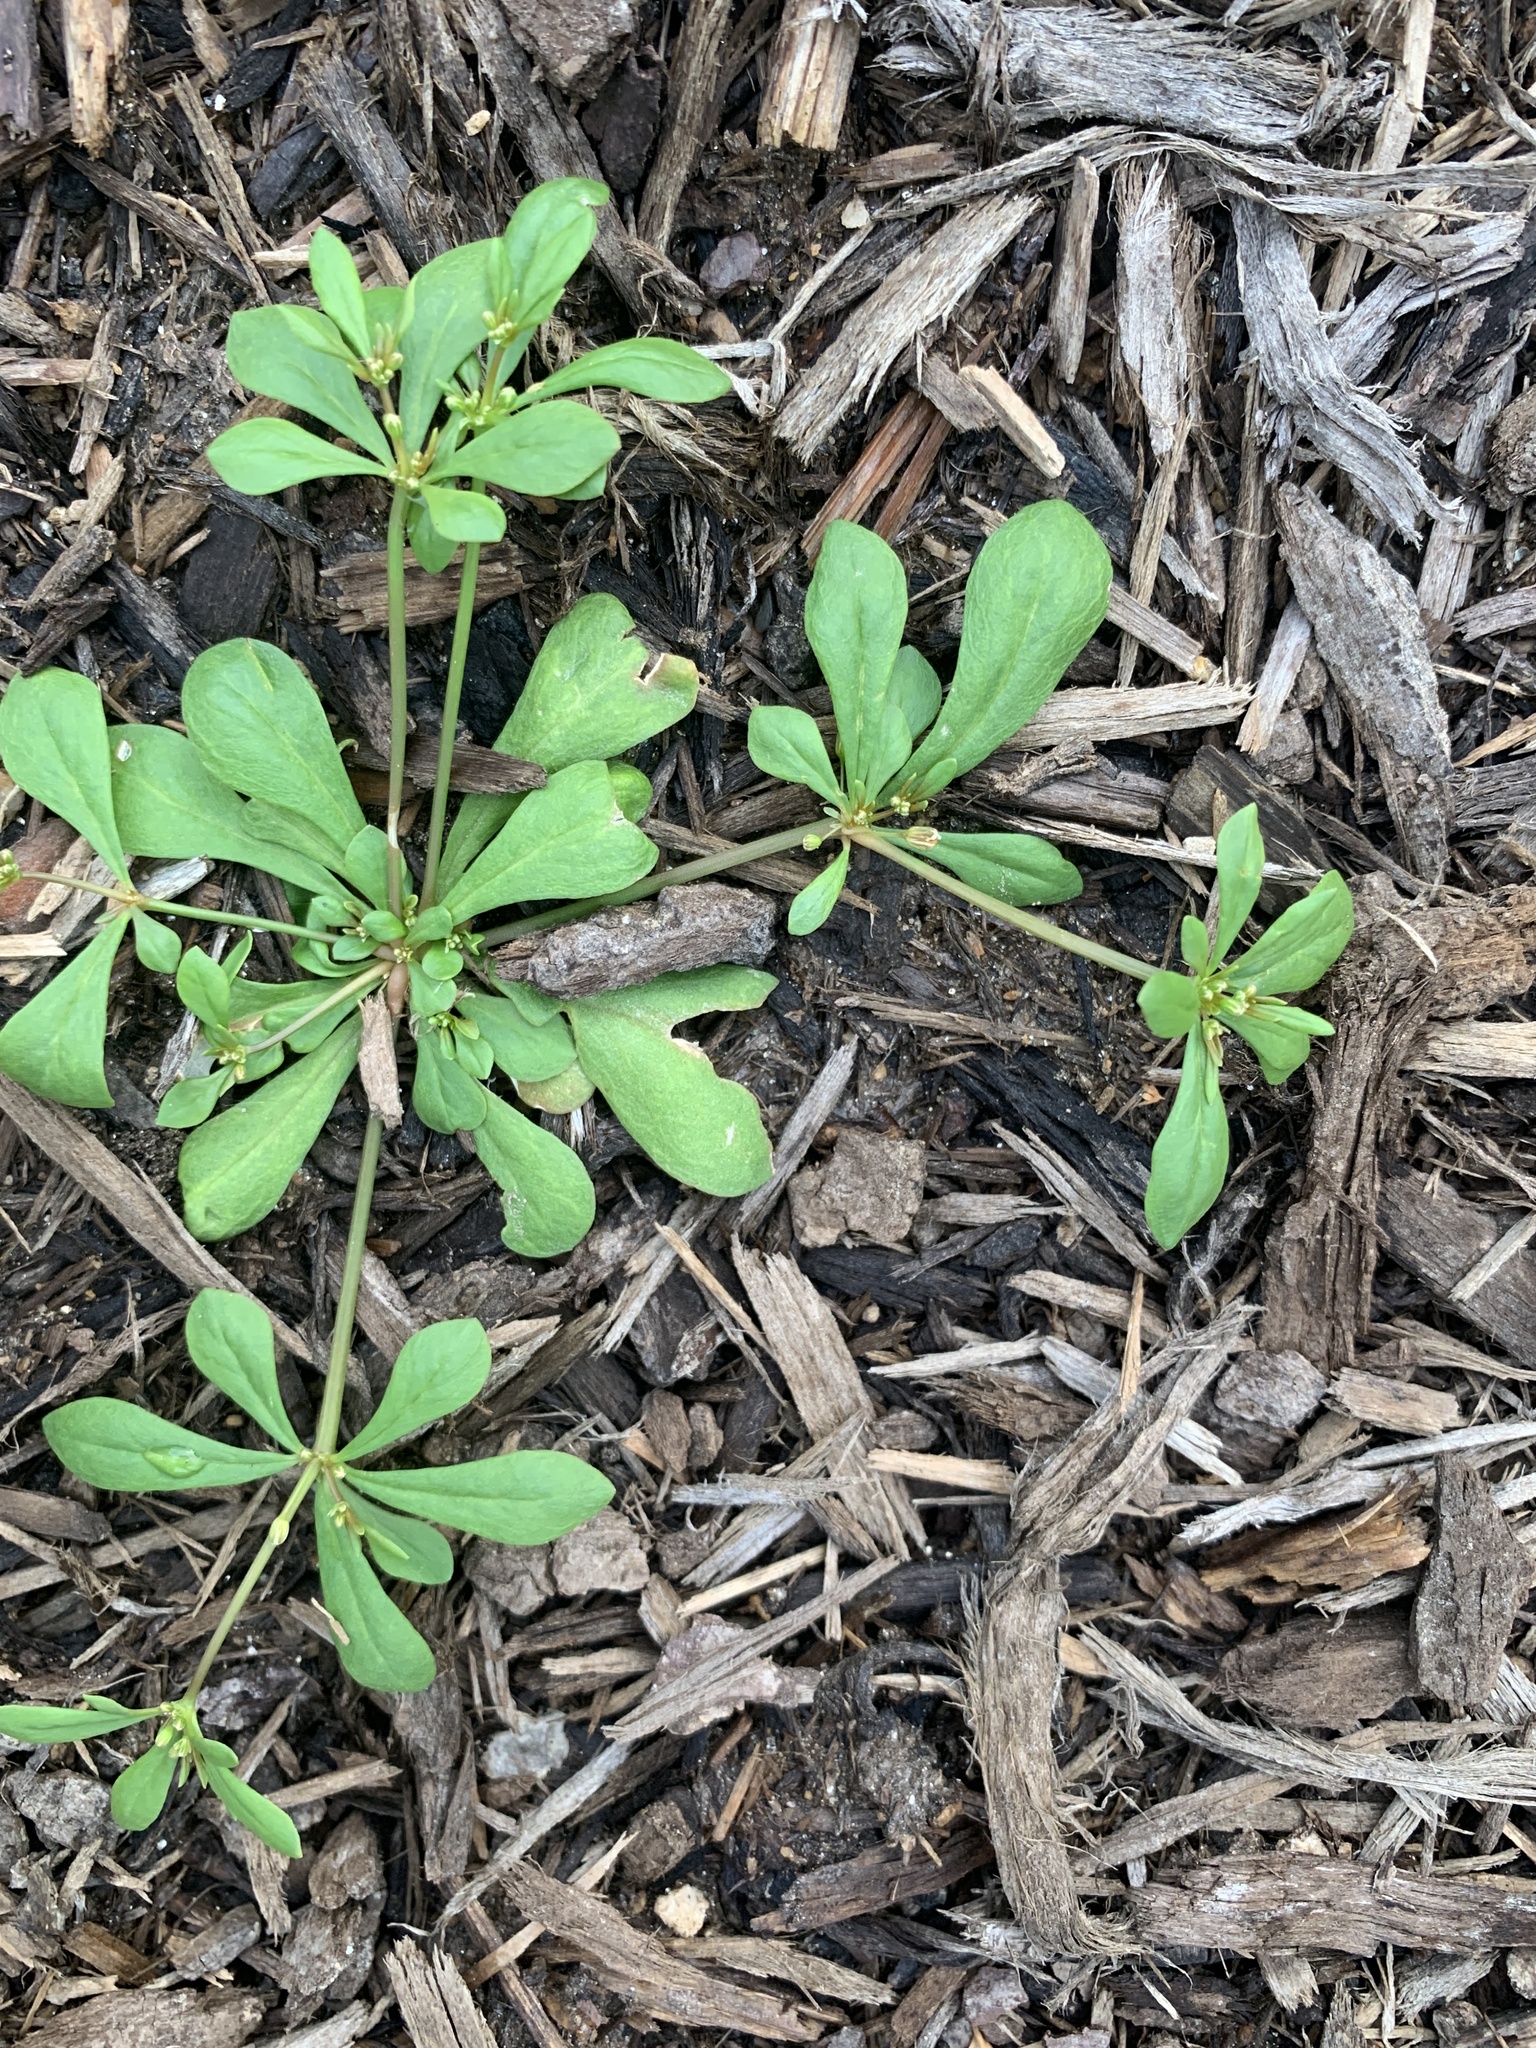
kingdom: Plantae
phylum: Tracheophyta
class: Magnoliopsida
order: Caryophyllales
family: Molluginaceae
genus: Mollugo
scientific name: Mollugo verticillata
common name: Green carpetweed
